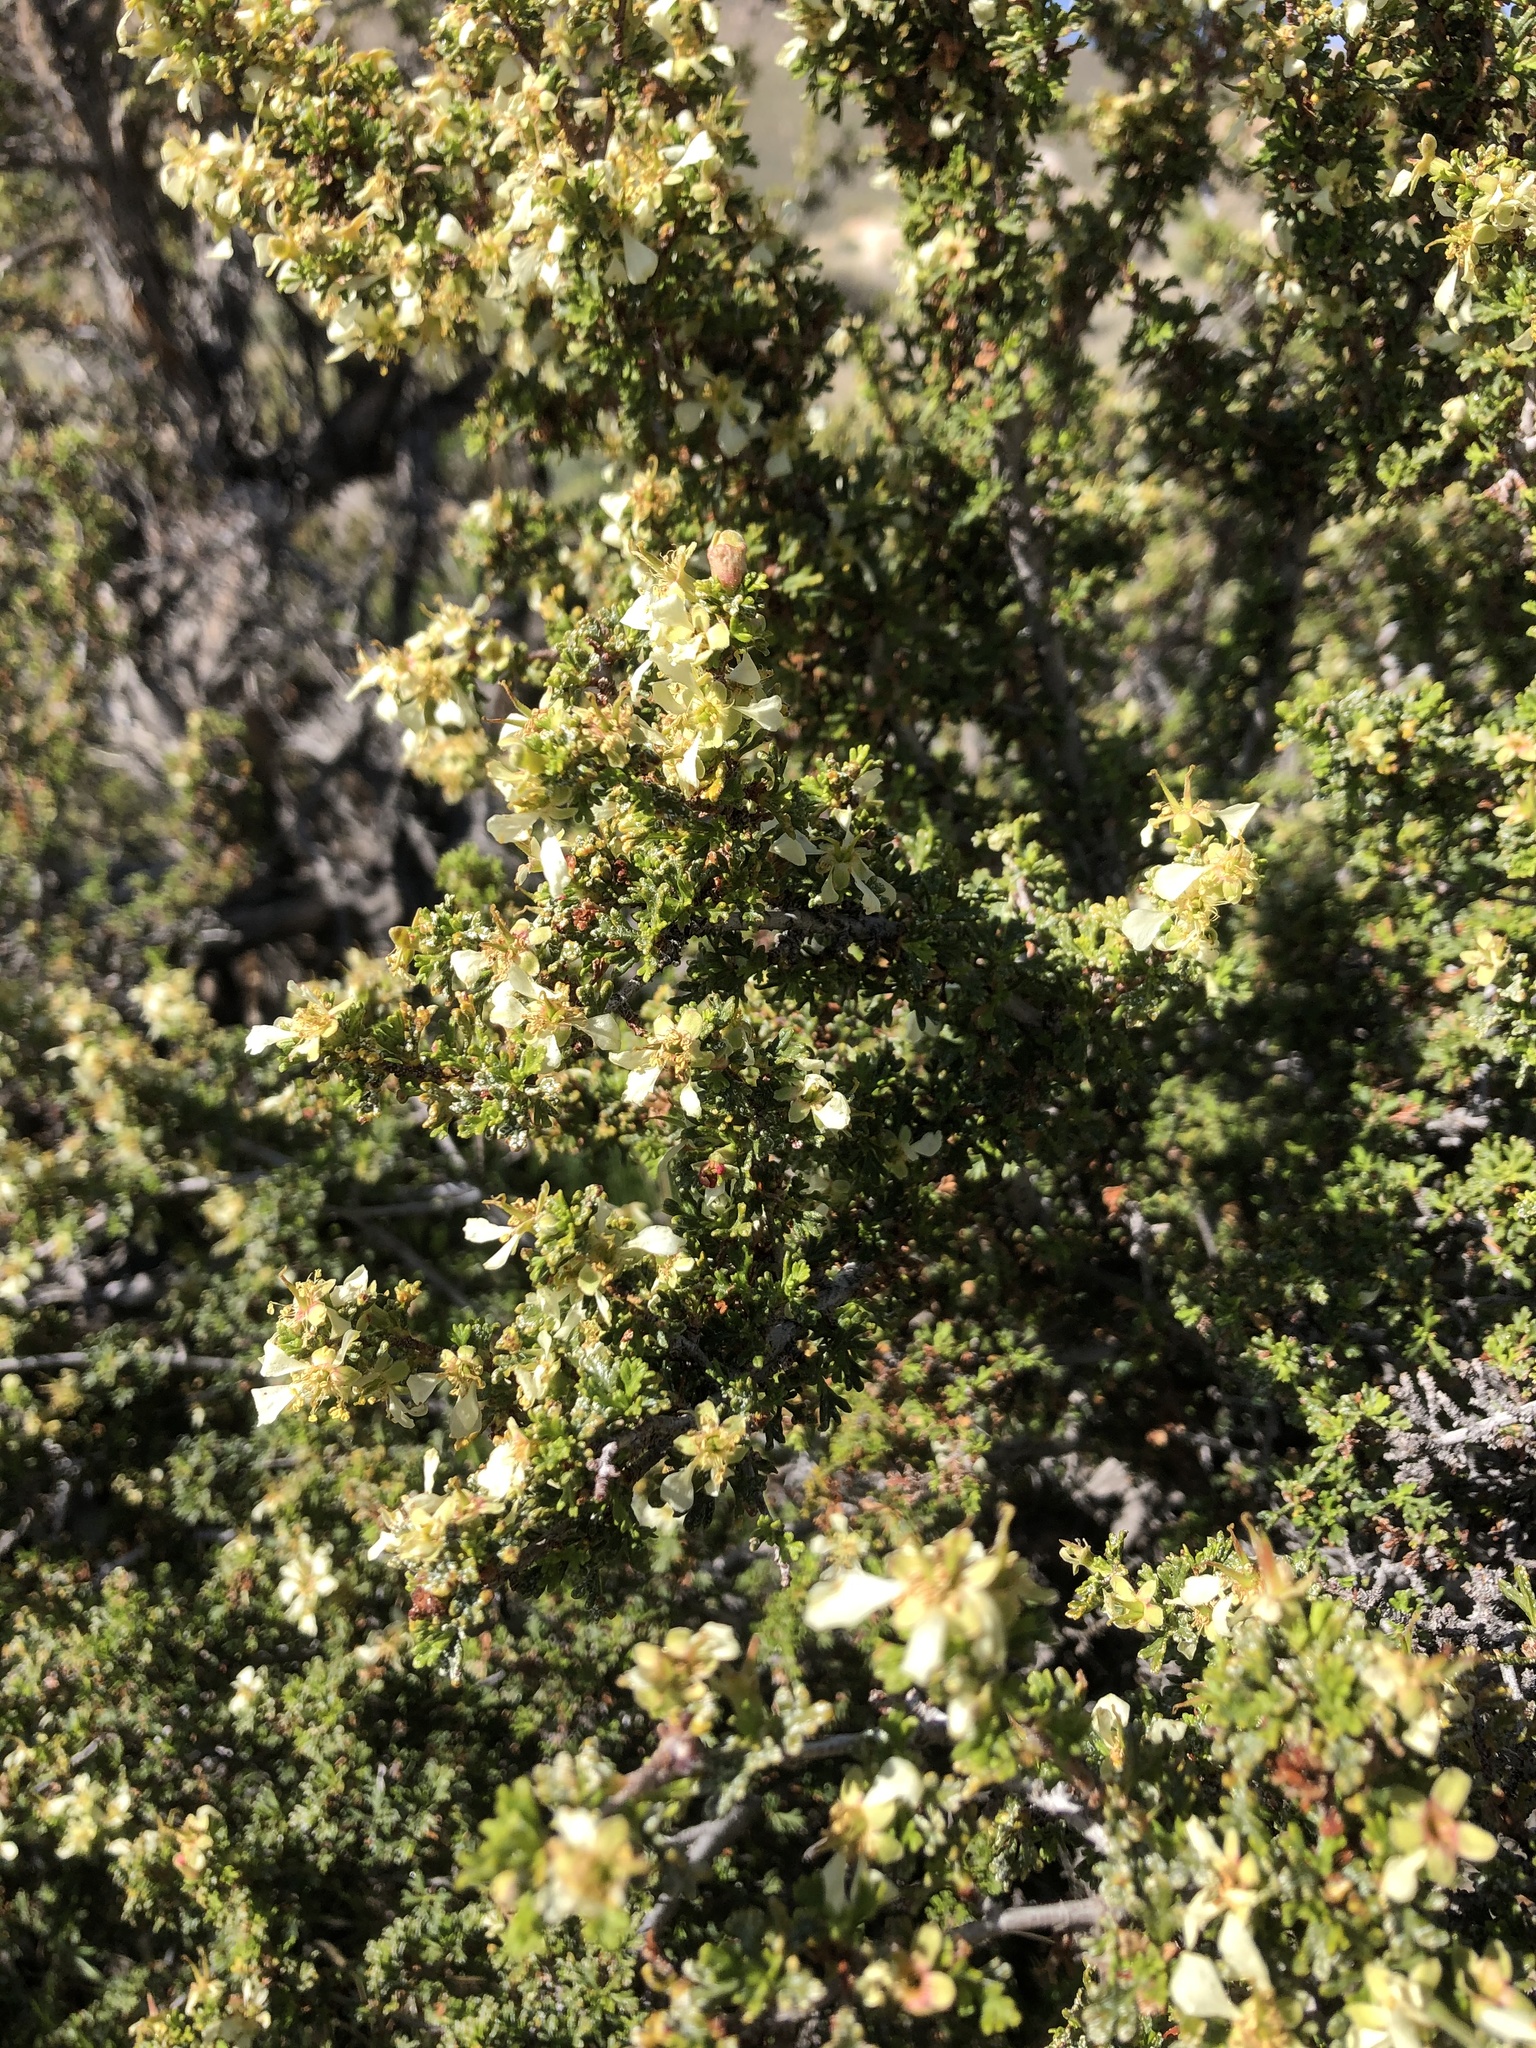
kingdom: Plantae
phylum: Tracheophyta
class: Magnoliopsida
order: Rosales
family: Rosaceae
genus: Purshia
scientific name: Purshia tridentata
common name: Antelope bitterbrush
